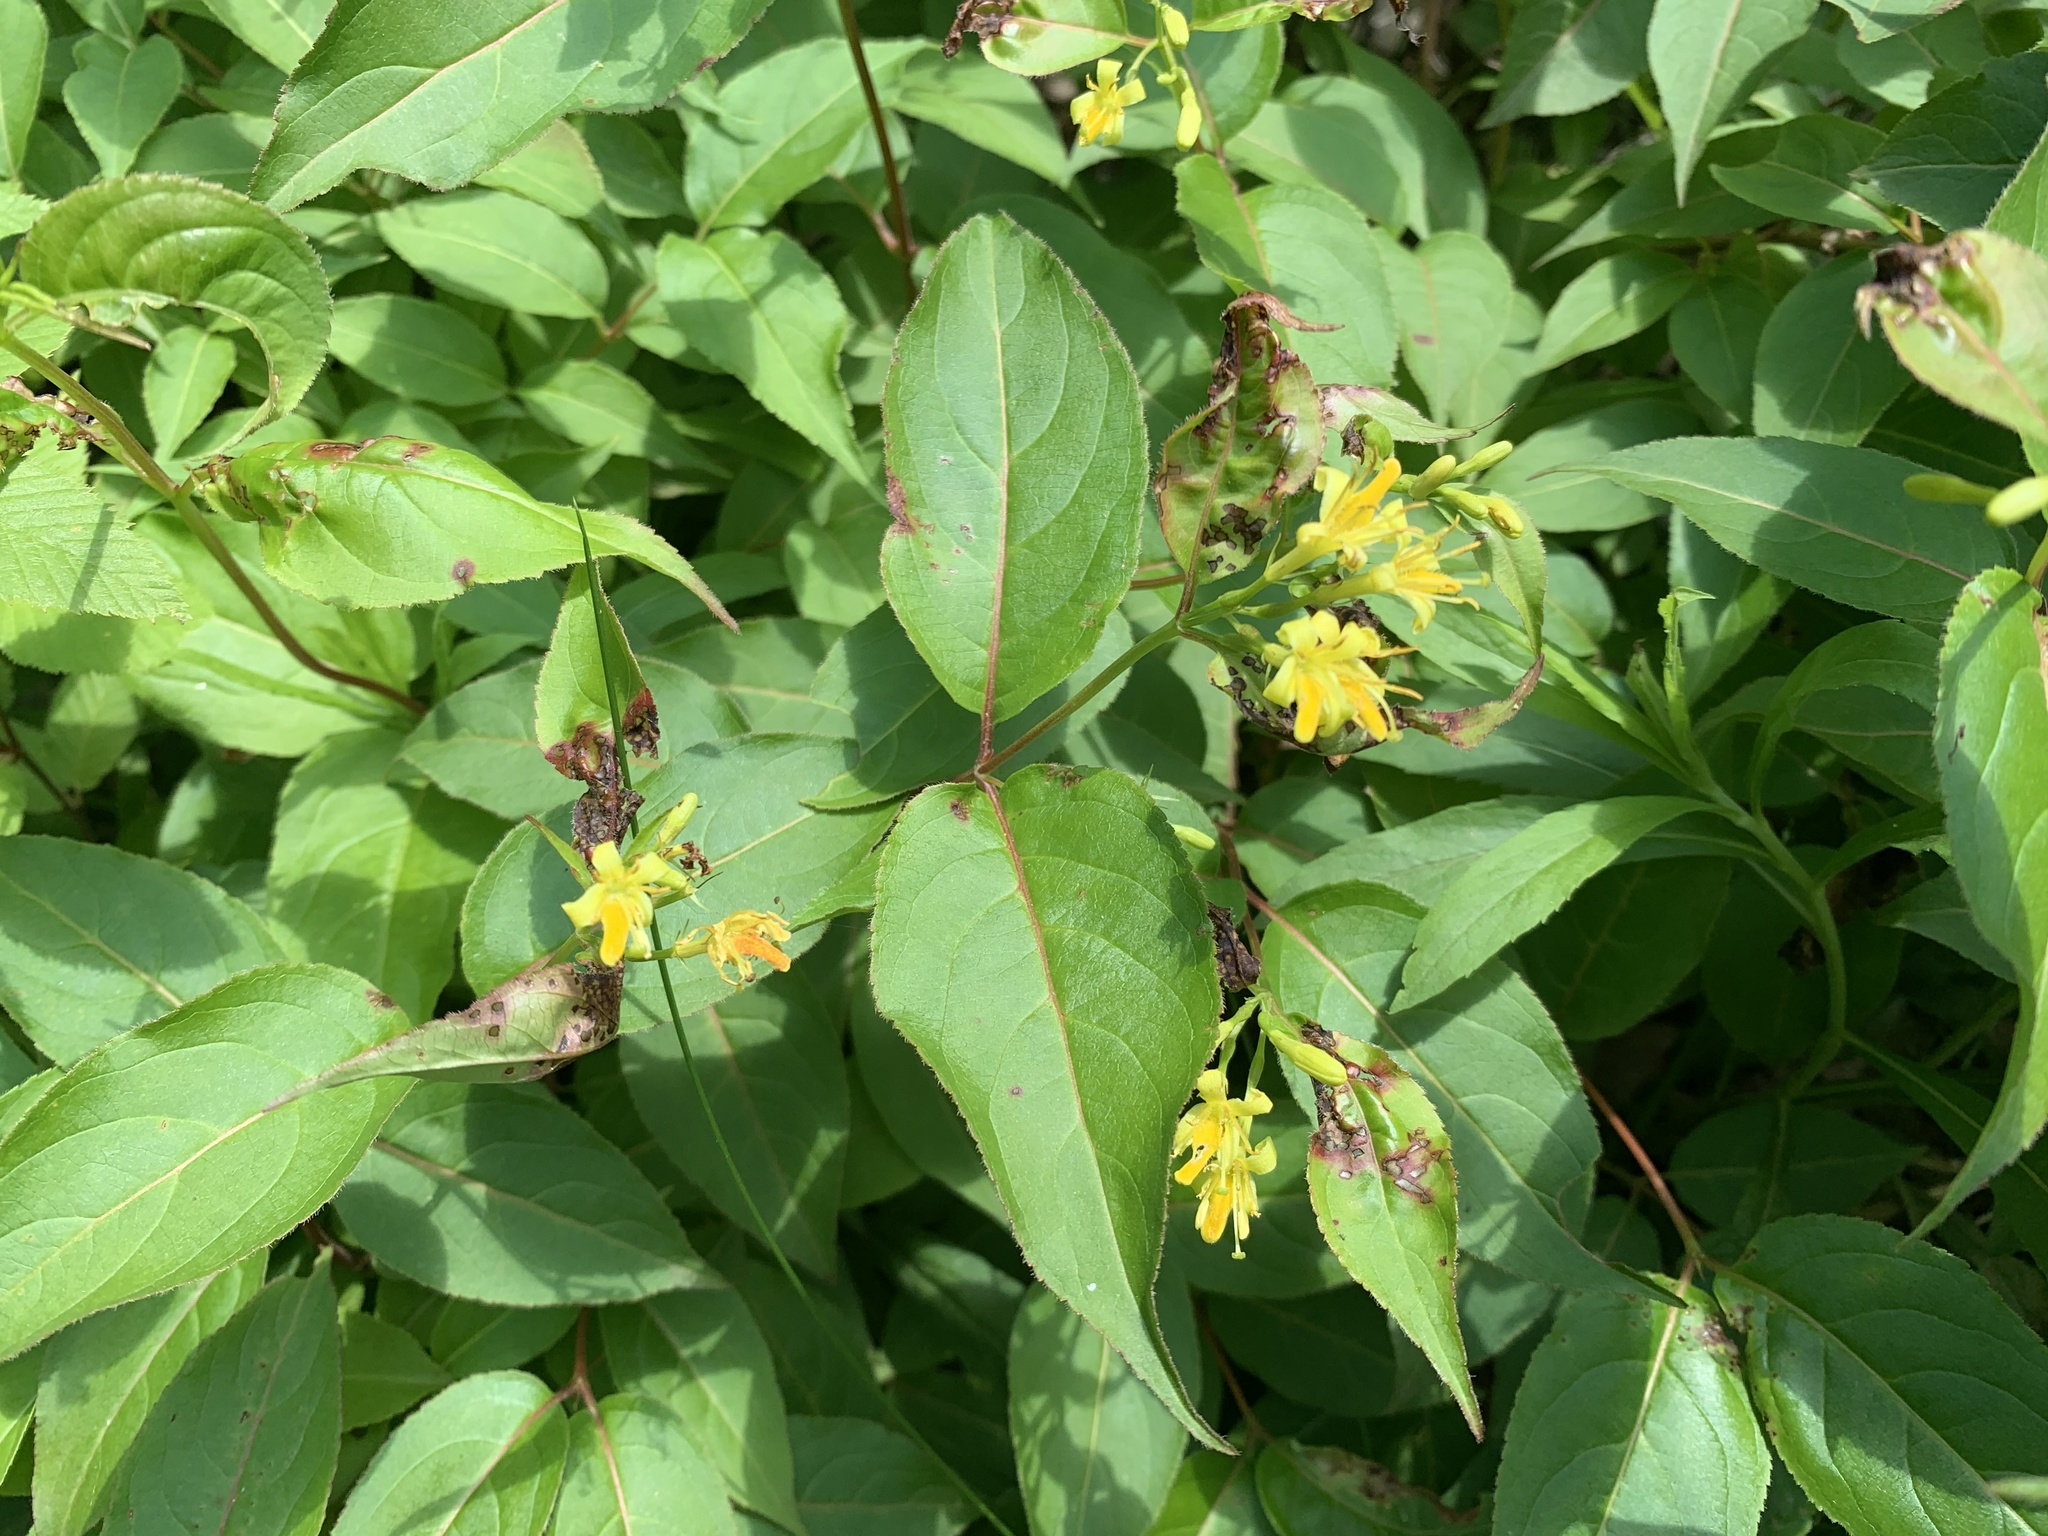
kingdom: Plantae
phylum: Tracheophyta
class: Magnoliopsida
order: Dipsacales
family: Caprifoliaceae
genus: Diervilla
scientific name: Diervilla lonicera
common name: Bush-honeysuckle
